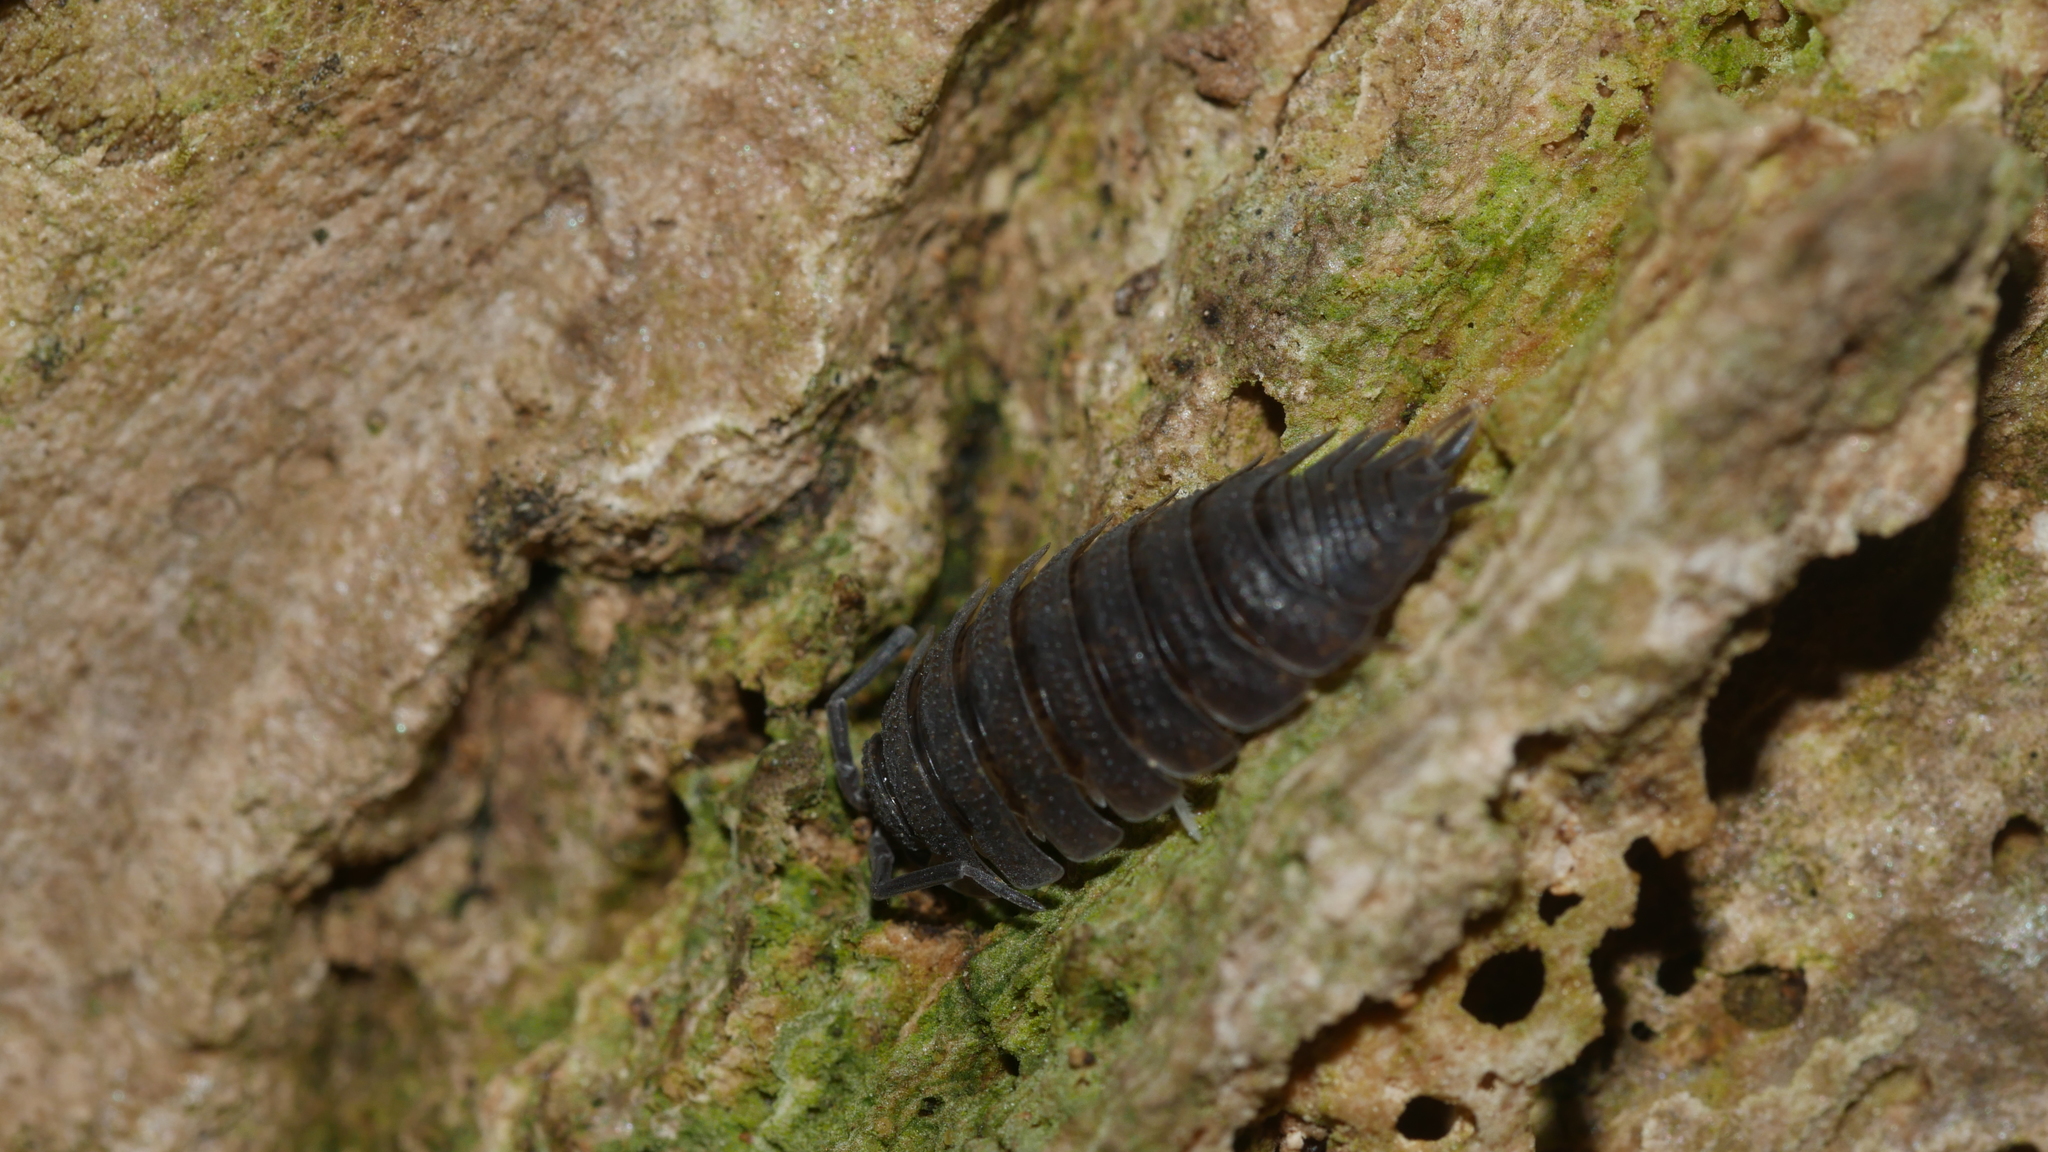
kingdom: Animalia
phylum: Arthropoda
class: Malacostraca
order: Isopoda
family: Porcellionidae
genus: Porcellio
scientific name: Porcellio scaber
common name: Common rough woodlouse
